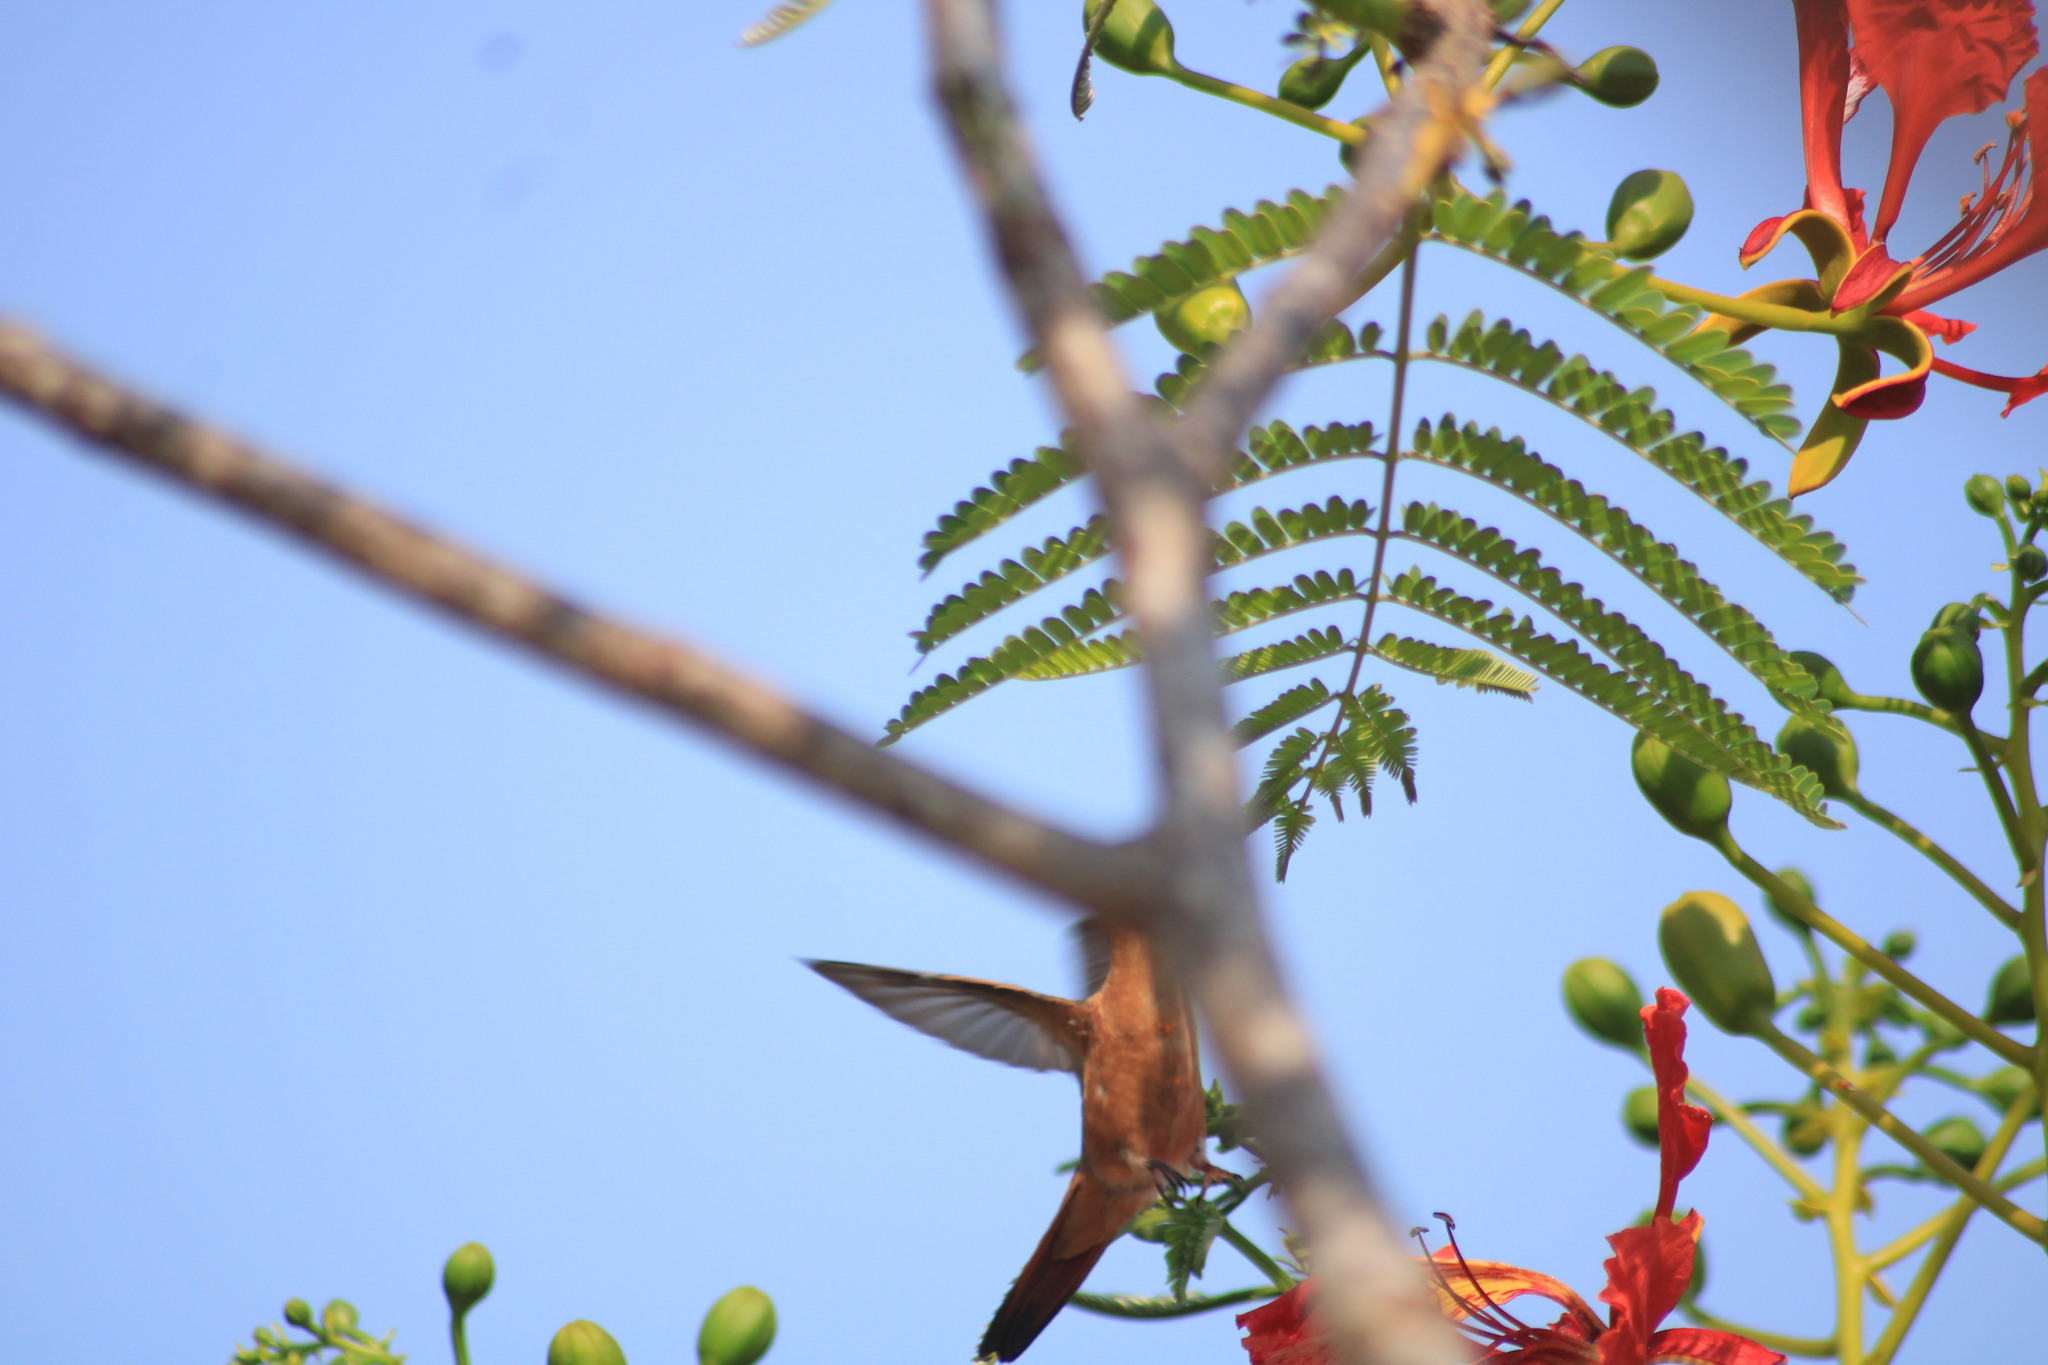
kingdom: Animalia
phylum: Chordata
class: Aves
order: Apodiformes
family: Trochilidae
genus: Amazilia
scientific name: Amazilia rutila
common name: Cinnamon hummingbird
